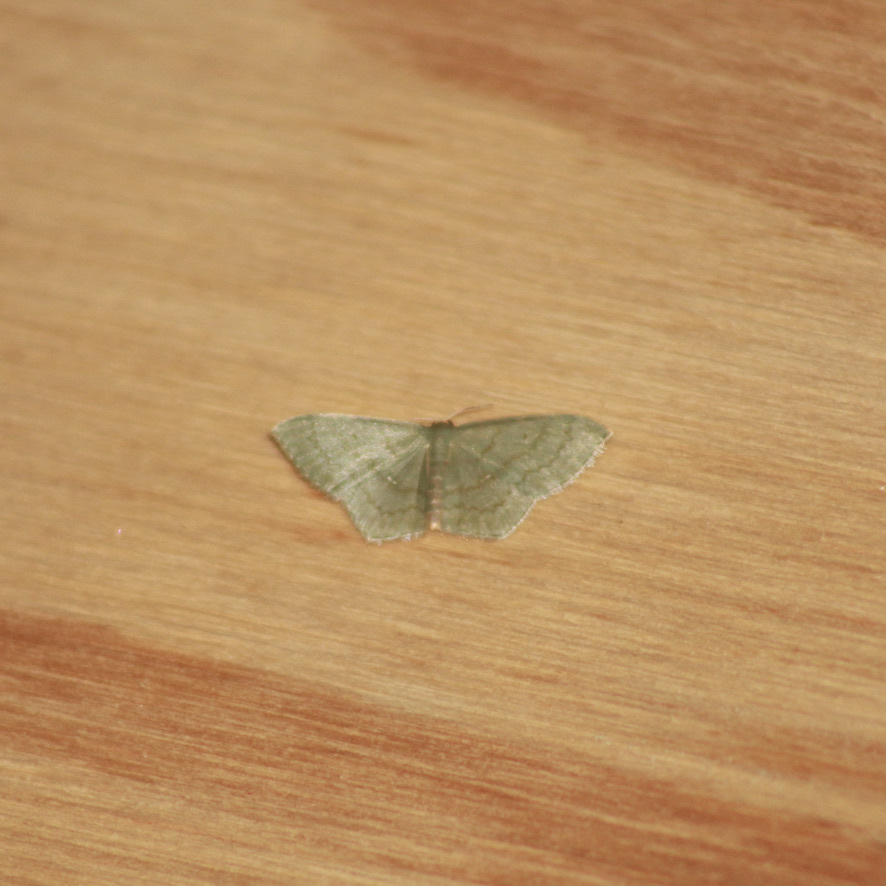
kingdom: Animalia
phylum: Arthropoda
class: Insecta
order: Lepidoptera
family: Geometridae
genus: Dithecodes
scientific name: Dithecodes deaurata
